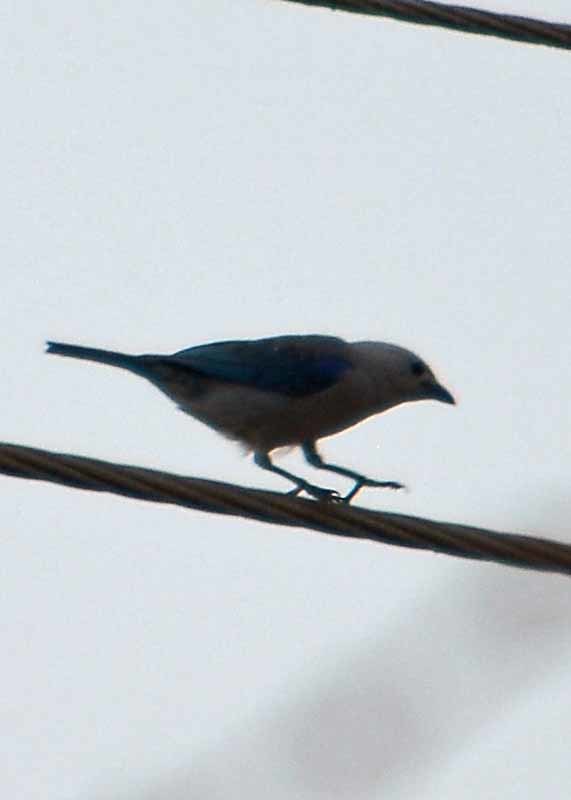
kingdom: Animalia
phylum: Chordata
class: Aves
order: Passeriformes
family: Thraupidae
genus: Thraupis
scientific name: Thraupis episcopus
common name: Blue-grey tanager
